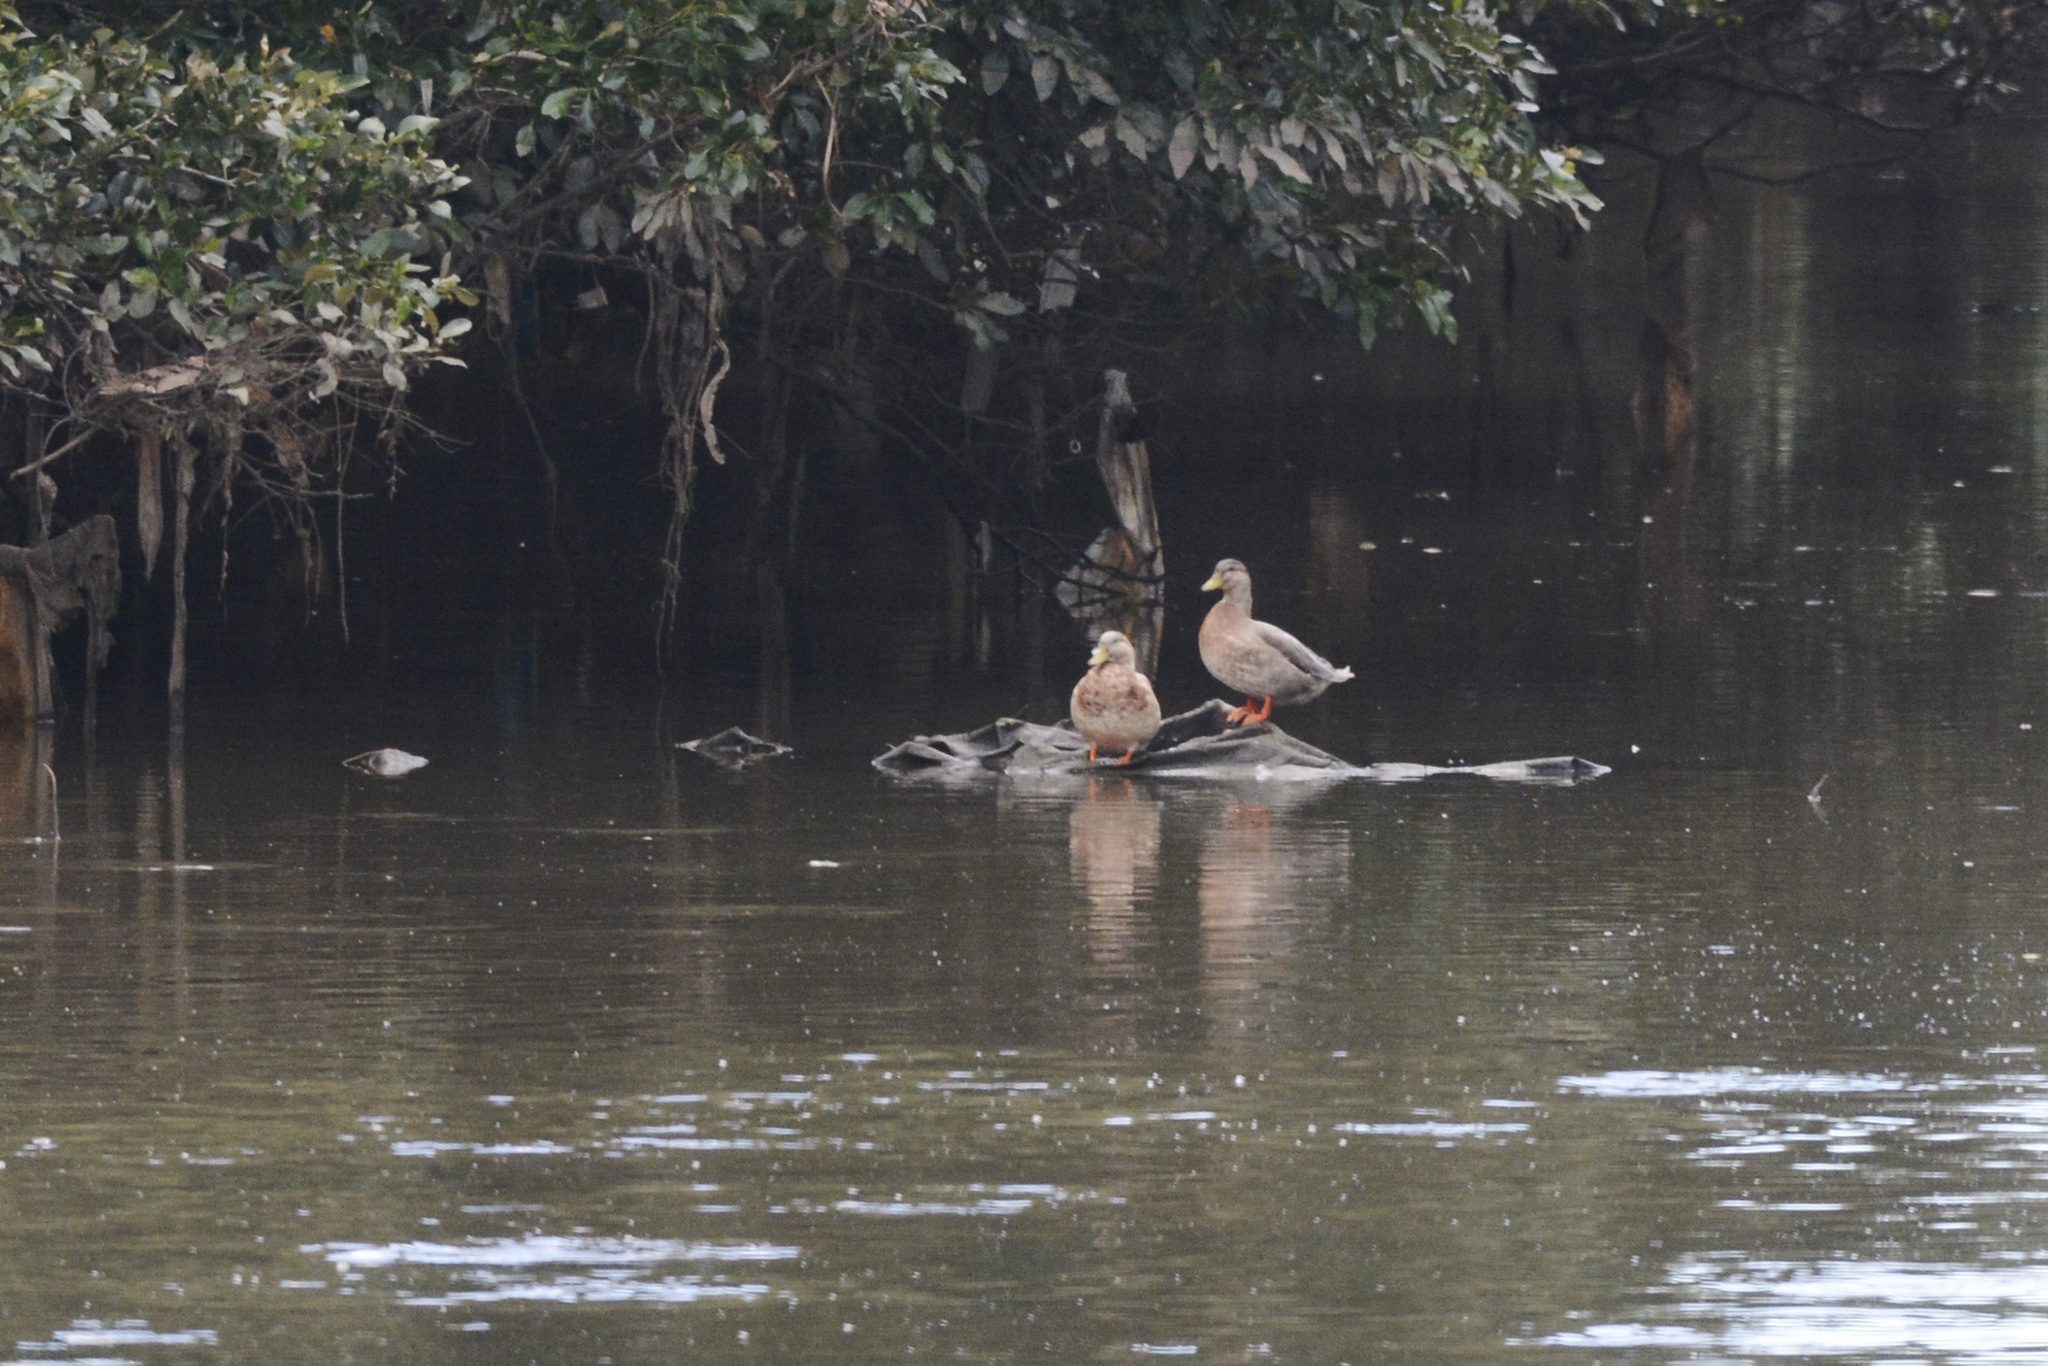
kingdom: Animalia
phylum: Chordata
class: Aves
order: Anseriformes
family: Anatidae
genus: Anas
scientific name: Anas platyrhynchos
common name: Mallard
